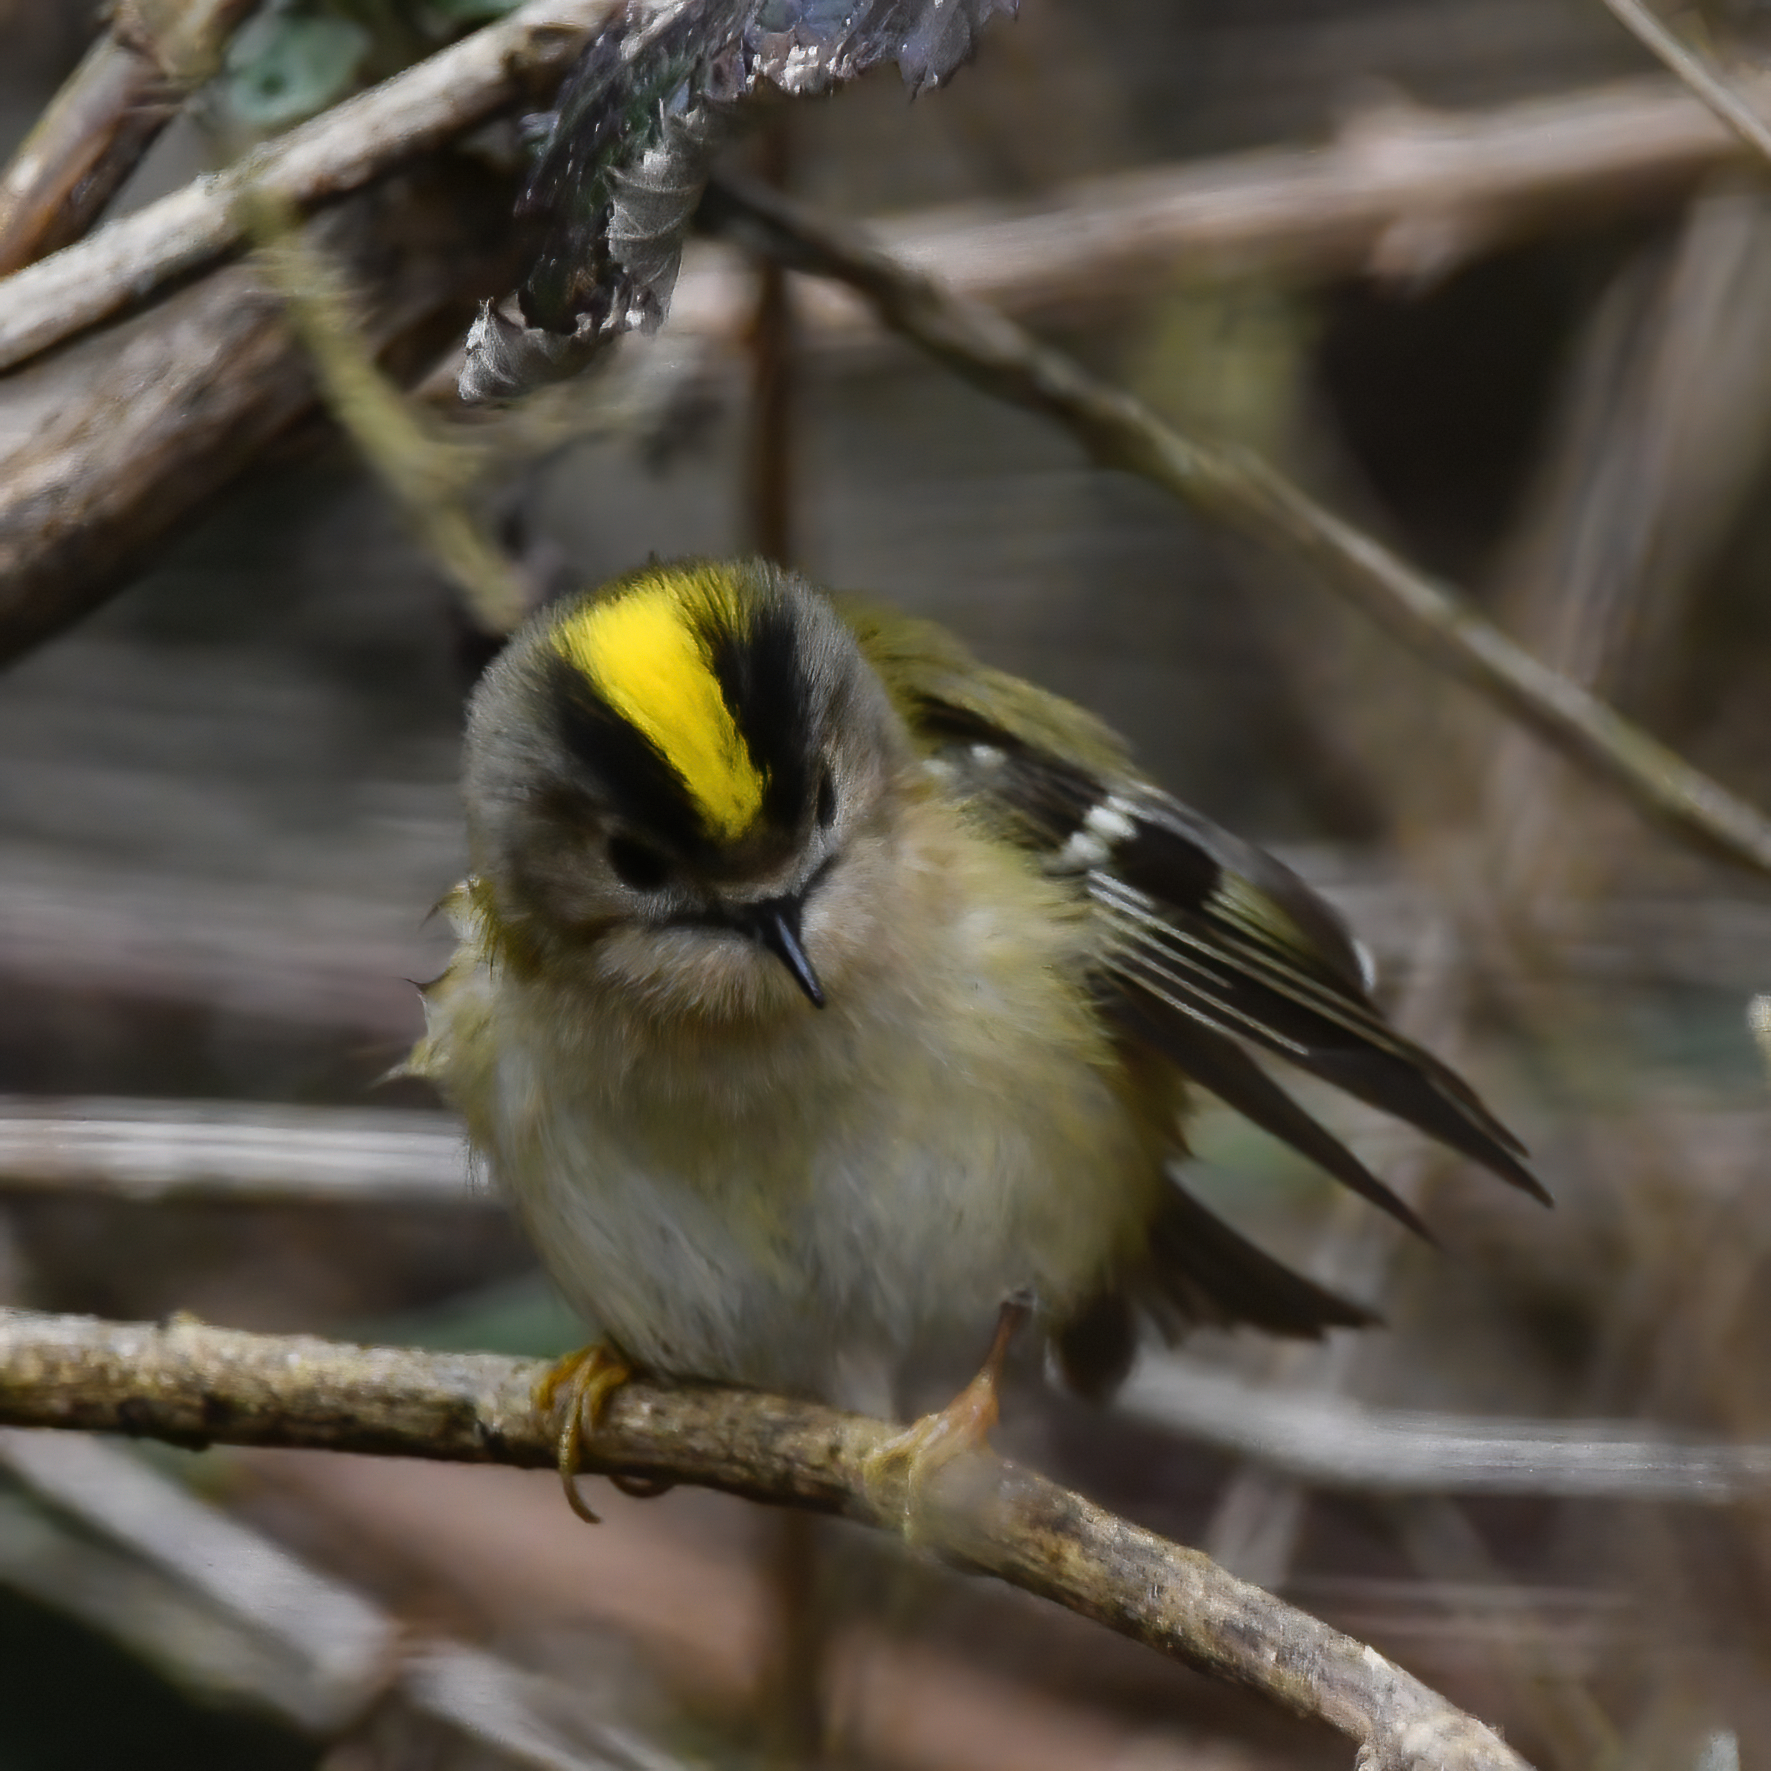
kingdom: Animalia
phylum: Chordata
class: Aves
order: Passeriformes
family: Regulidae
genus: Regulus
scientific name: Regulus regulus
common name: Goldcrest
